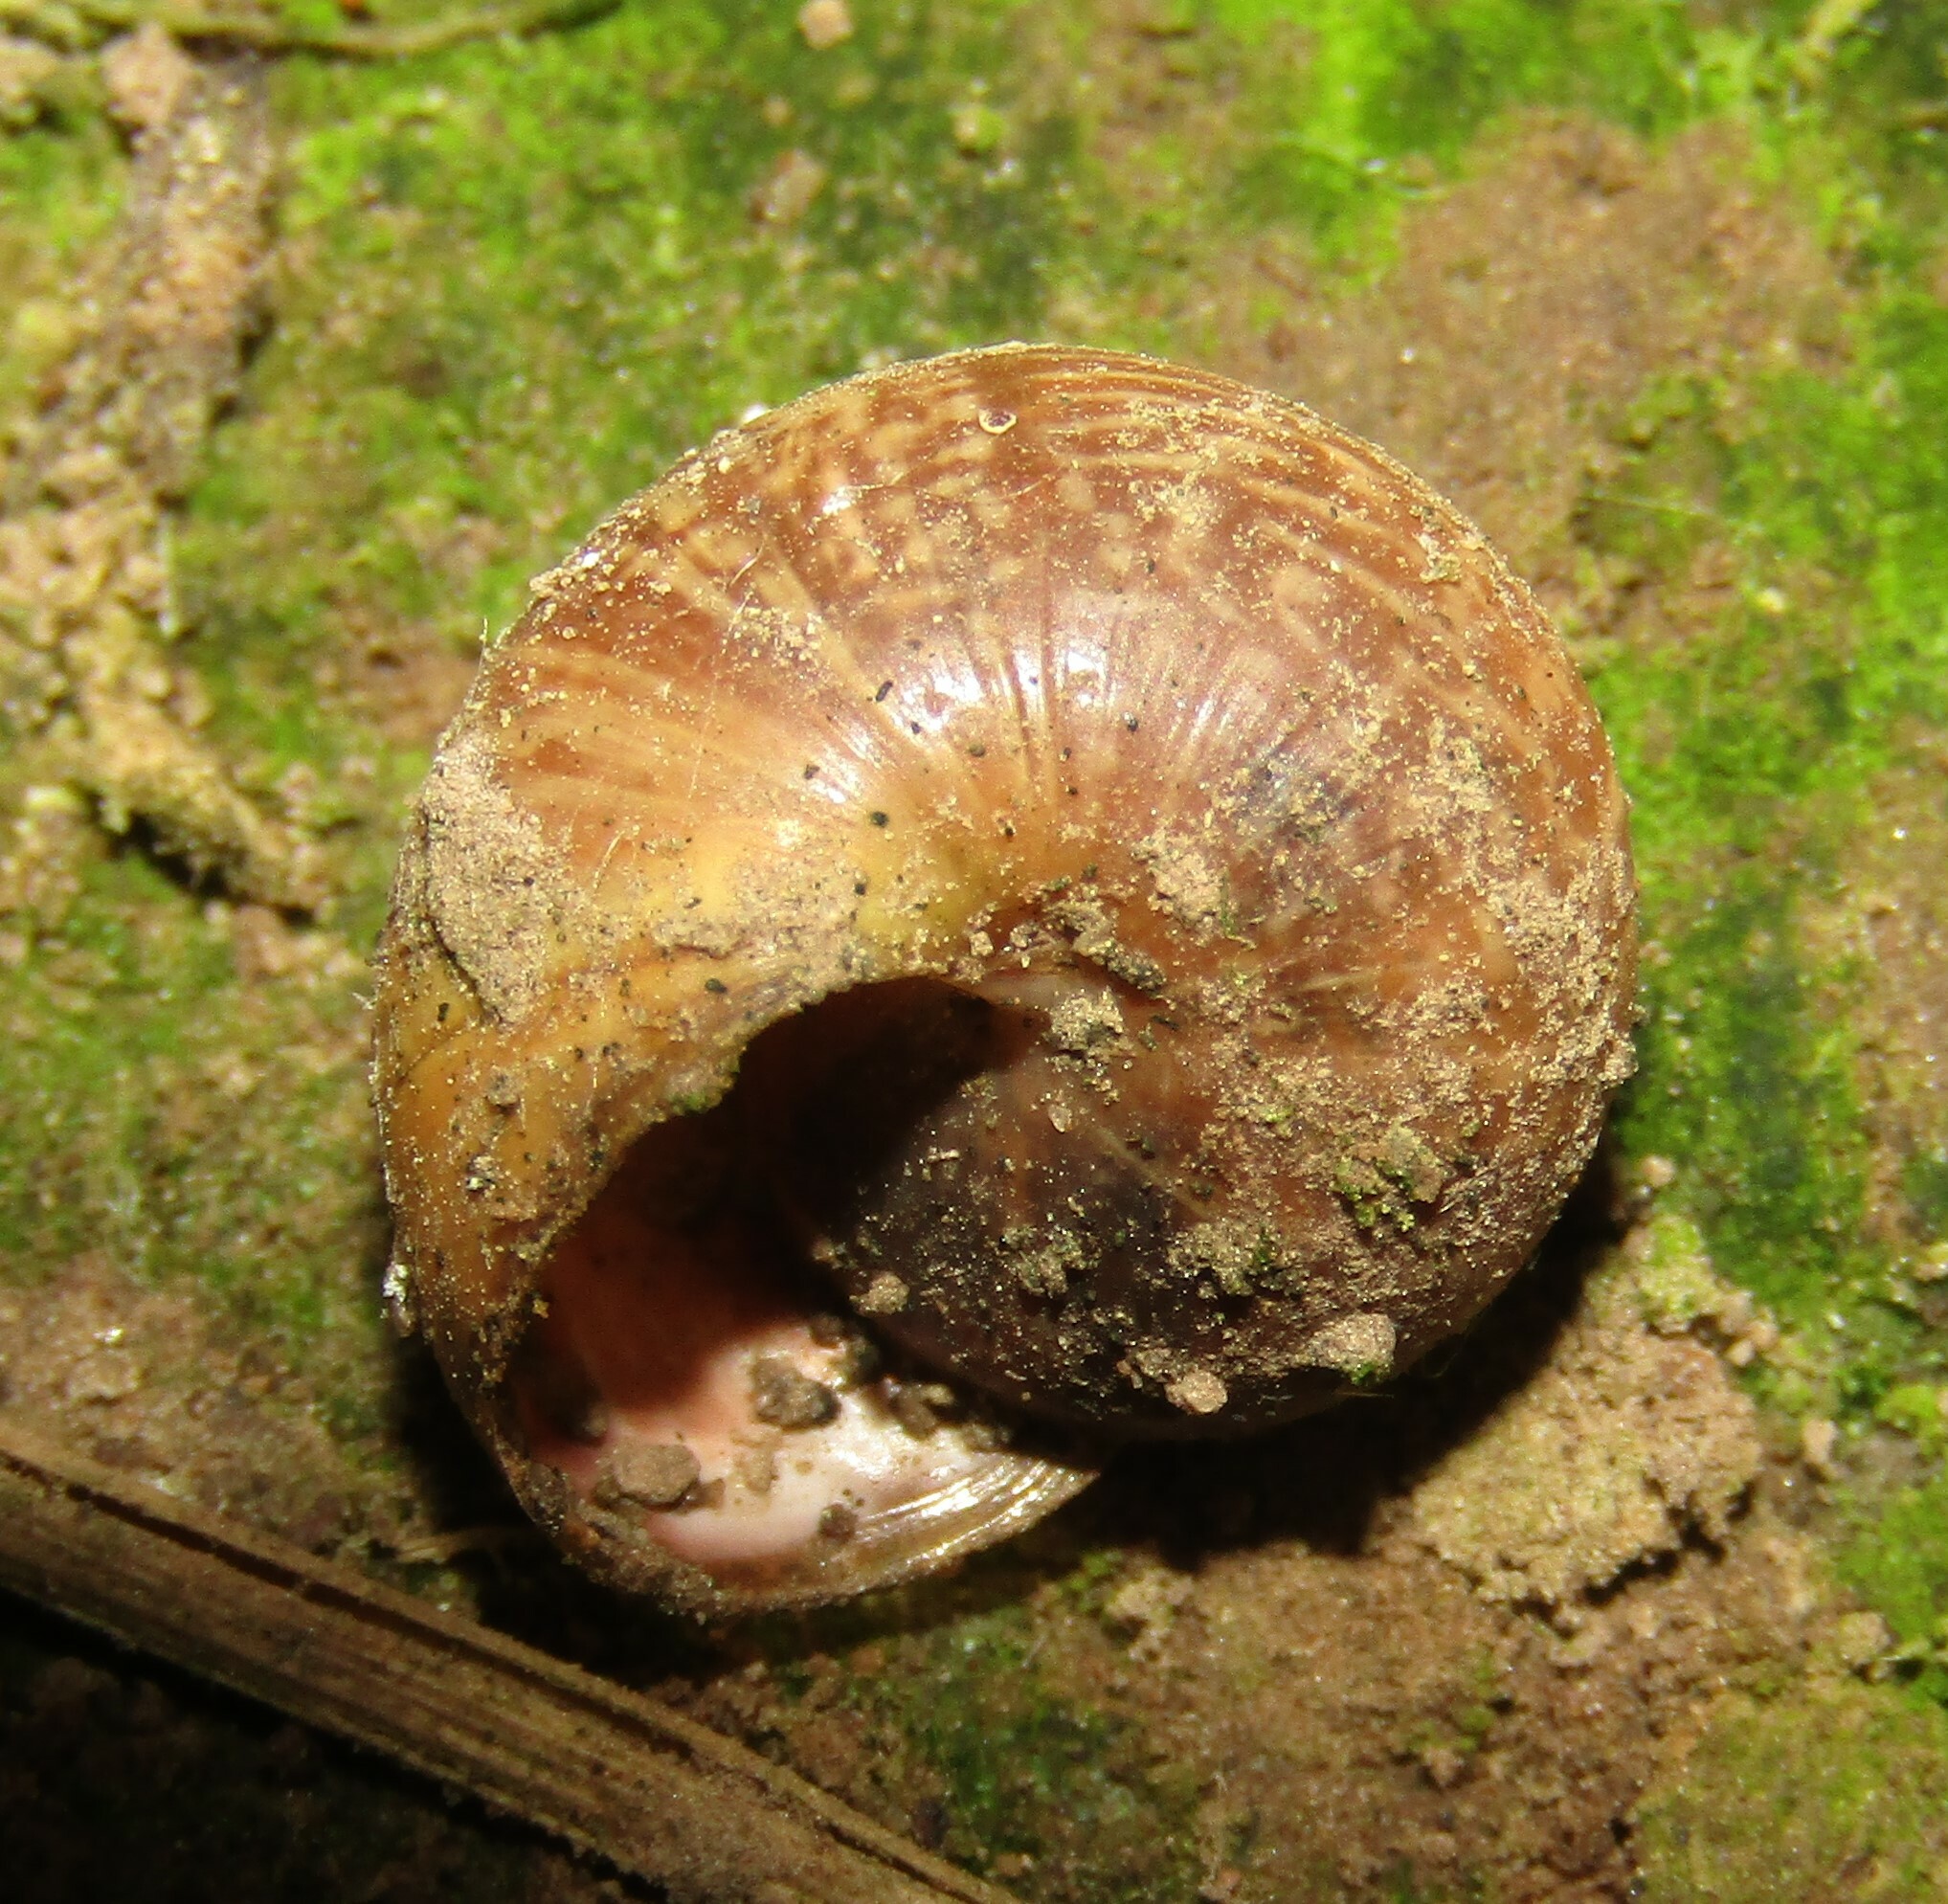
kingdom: Animalia
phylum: Mollusca
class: Gastropoda
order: Stylommatophora
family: Helicidae
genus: Arianta
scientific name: Arianta arbustorum
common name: Copse snail
